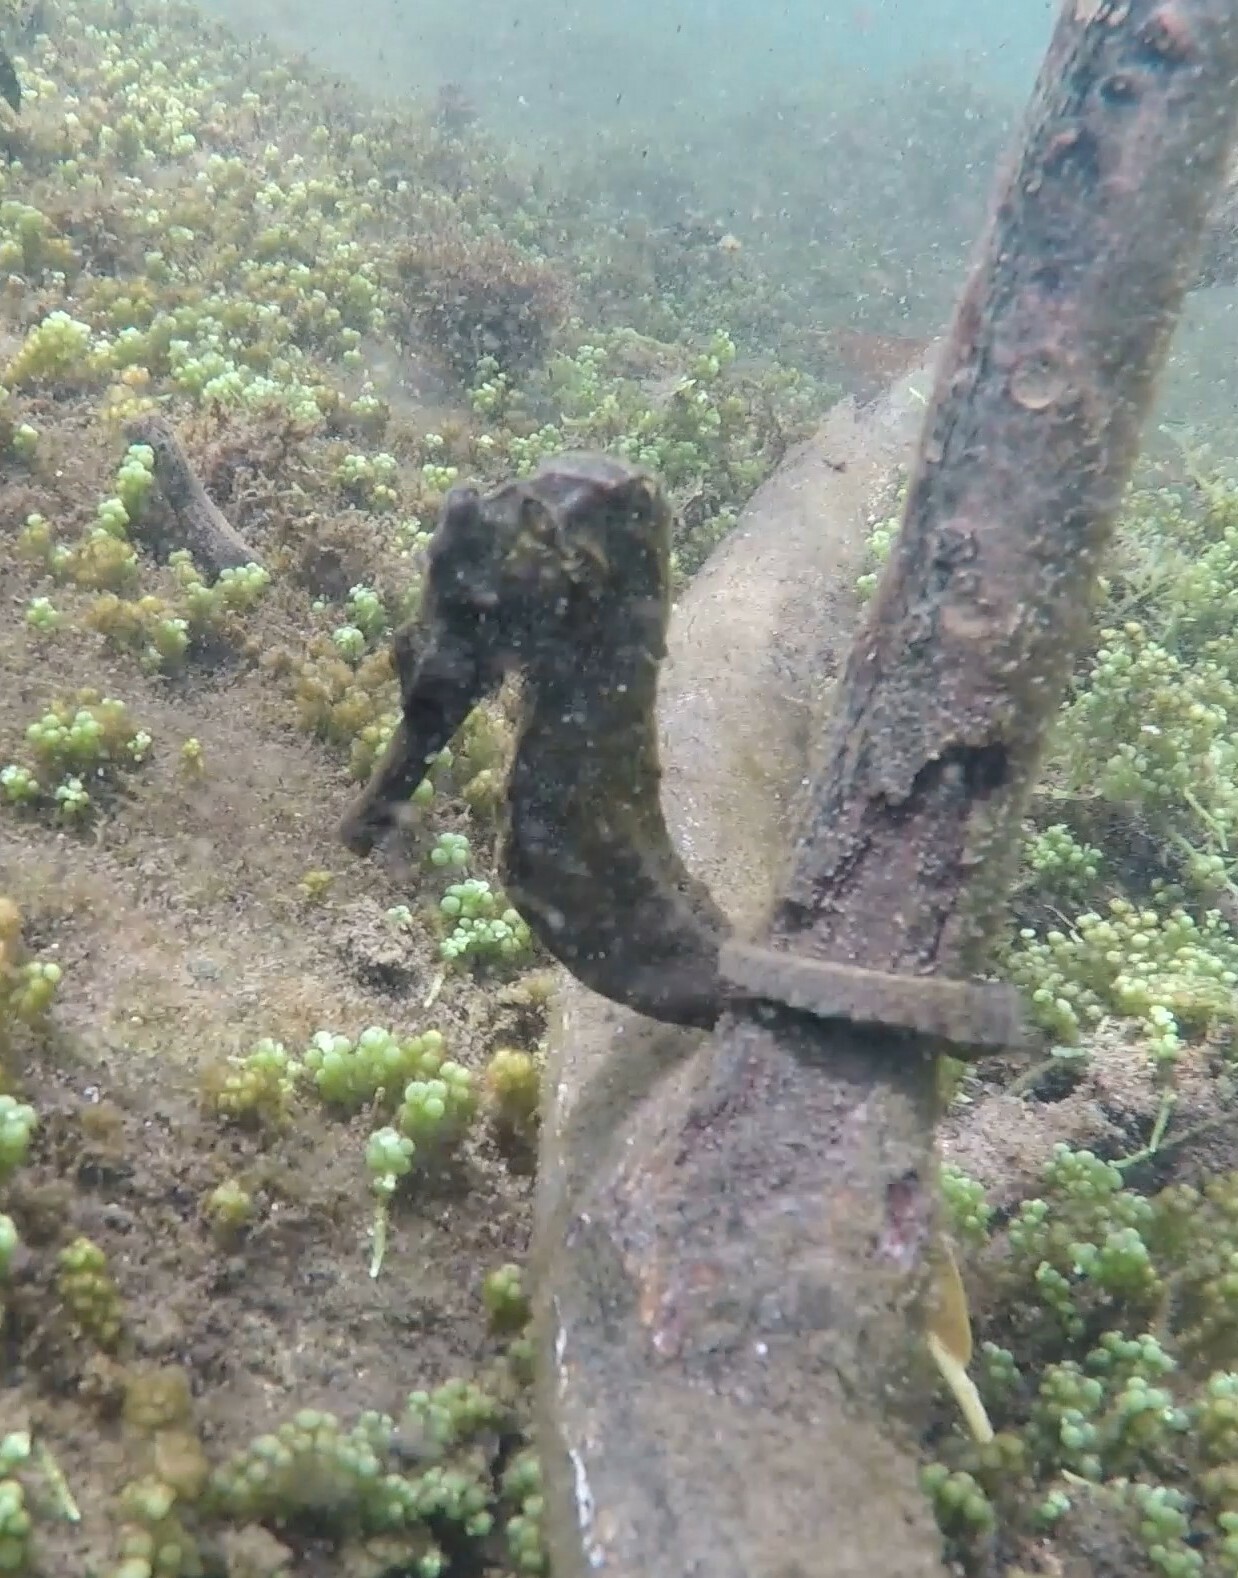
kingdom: Animalia
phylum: Chordata
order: Syngnathiformes
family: Syngnathidae
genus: Hippocampus
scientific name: Hippocampus ingens
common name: Giant seahorse
